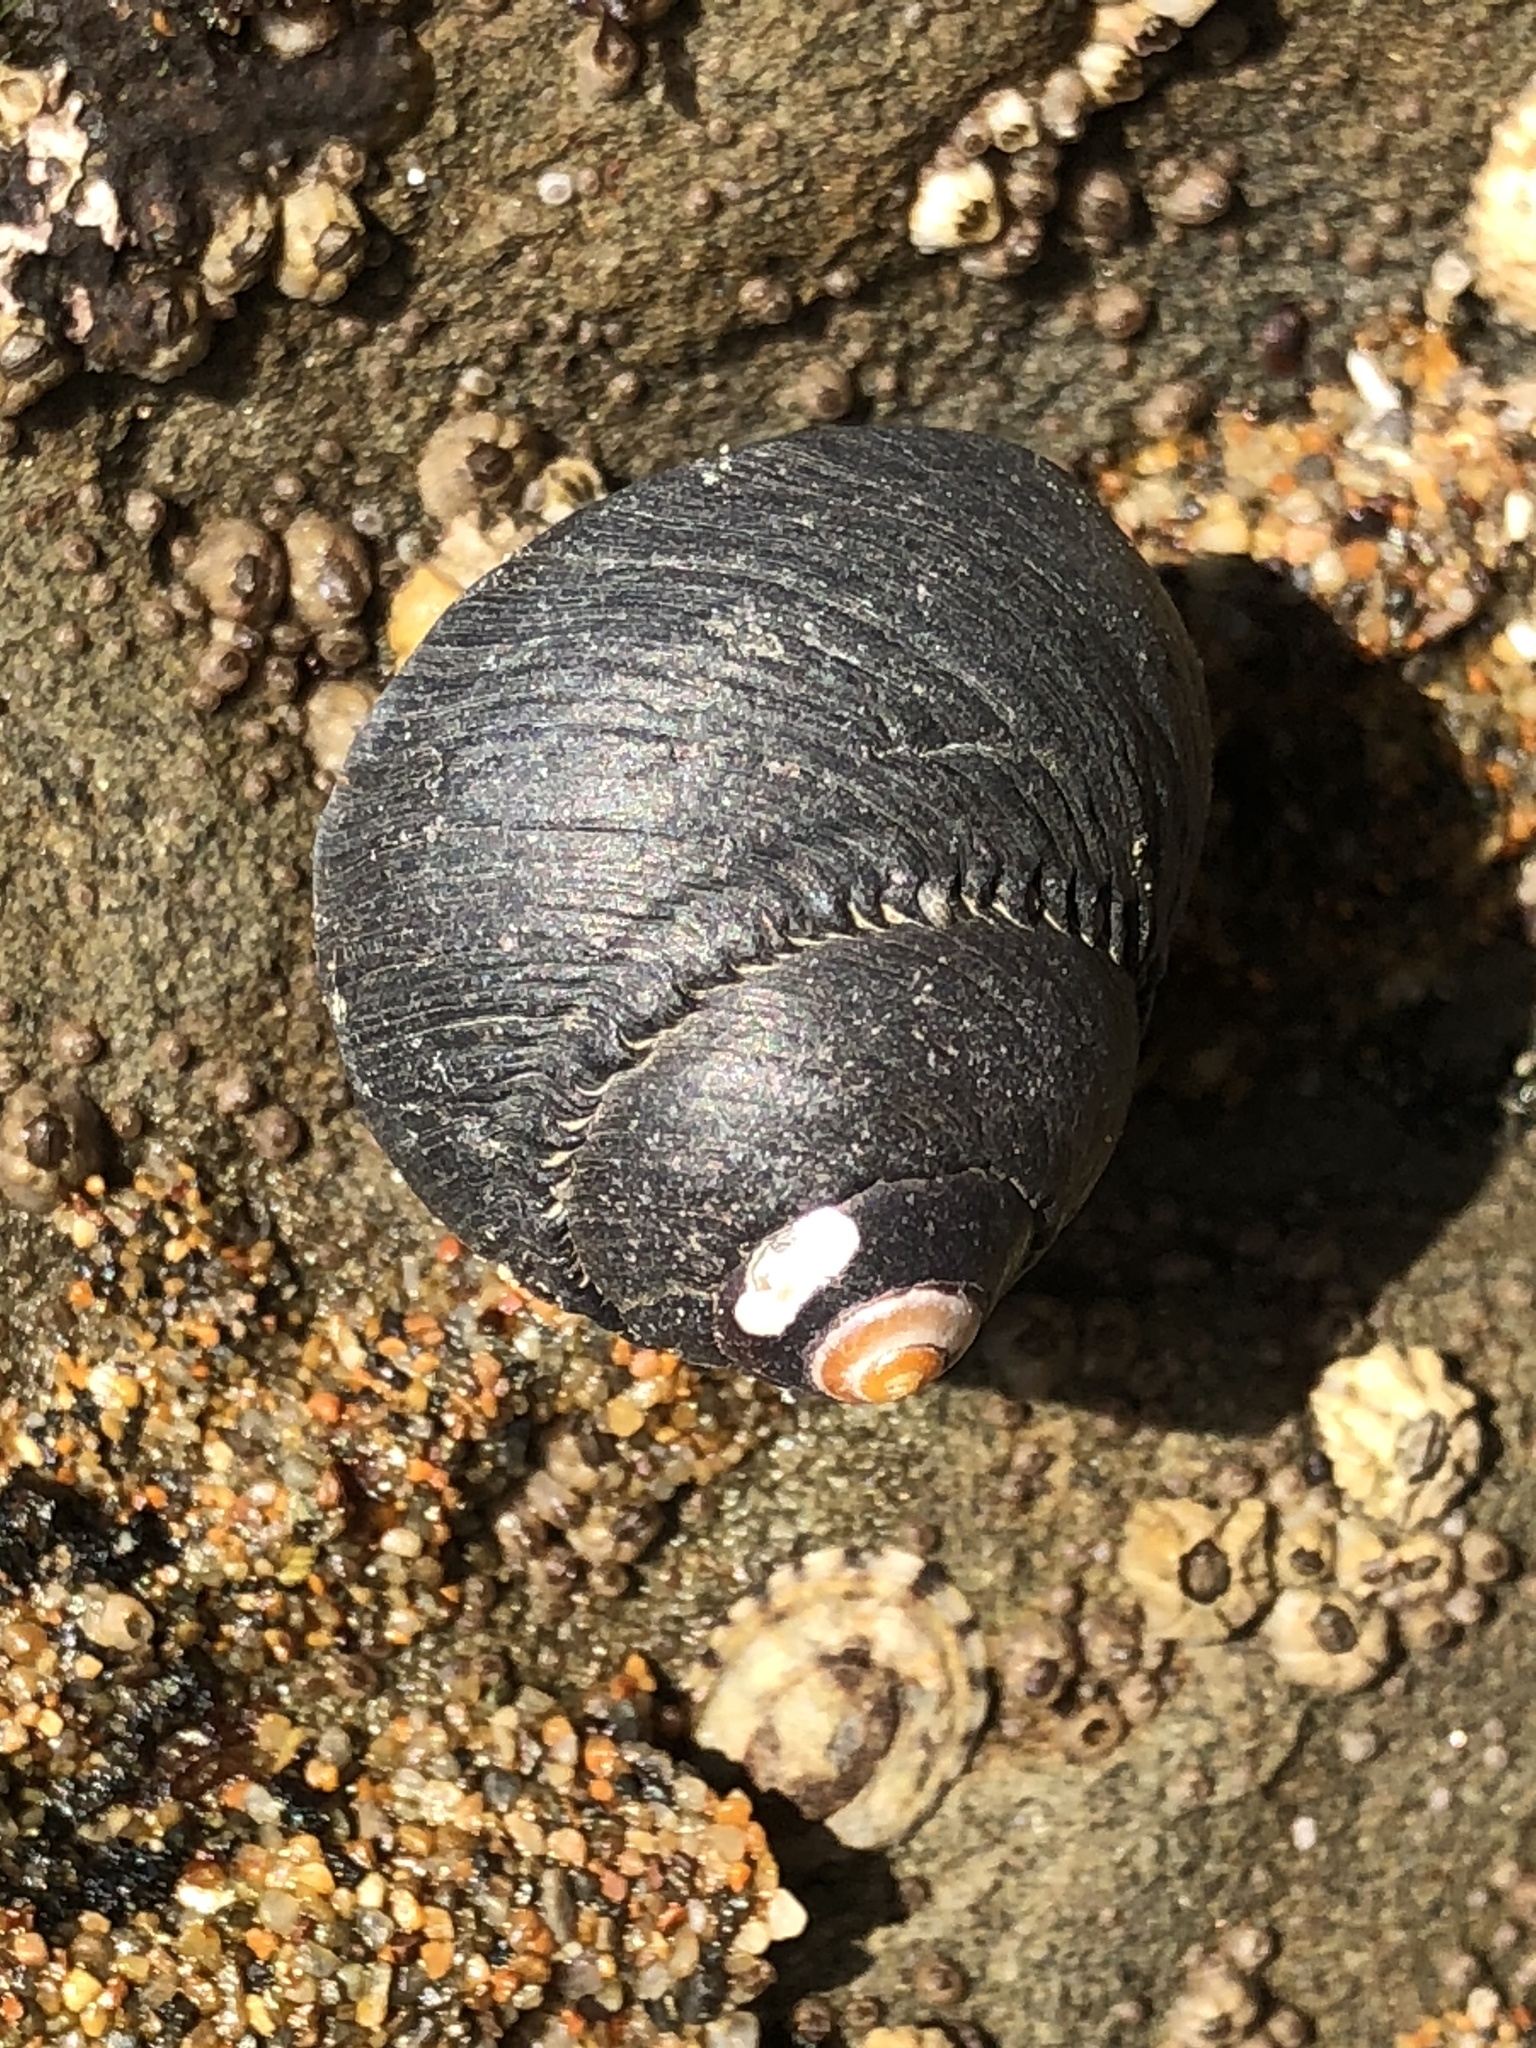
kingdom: Animalia
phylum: Mollusca
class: Gastropoda
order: Trochida
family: Tegulidae
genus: Tegula
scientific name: Tegula funebralis
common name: Black tegula
